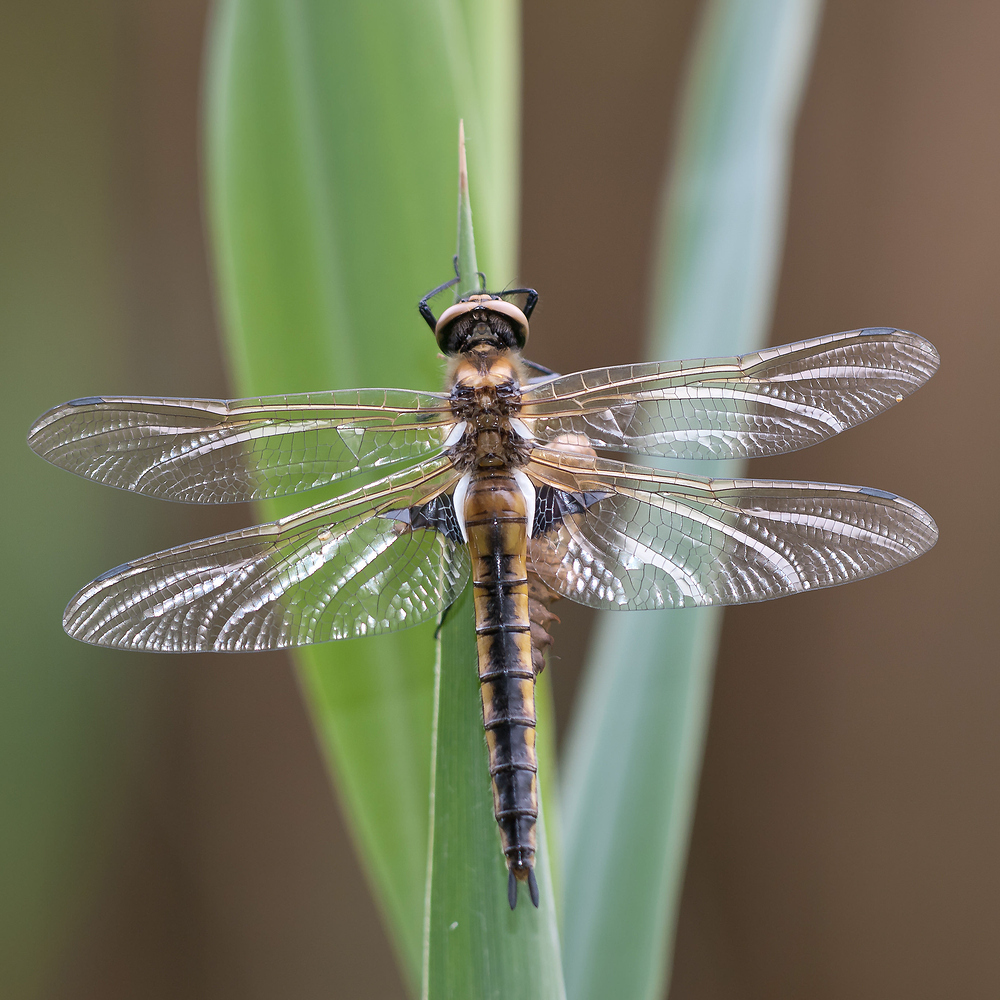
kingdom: Animalia
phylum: Arthropoda
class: Insecta
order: Odonata
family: Corduliidae
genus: Epitheca
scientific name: Epitheca bimaculata
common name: Eurasian baskettail
